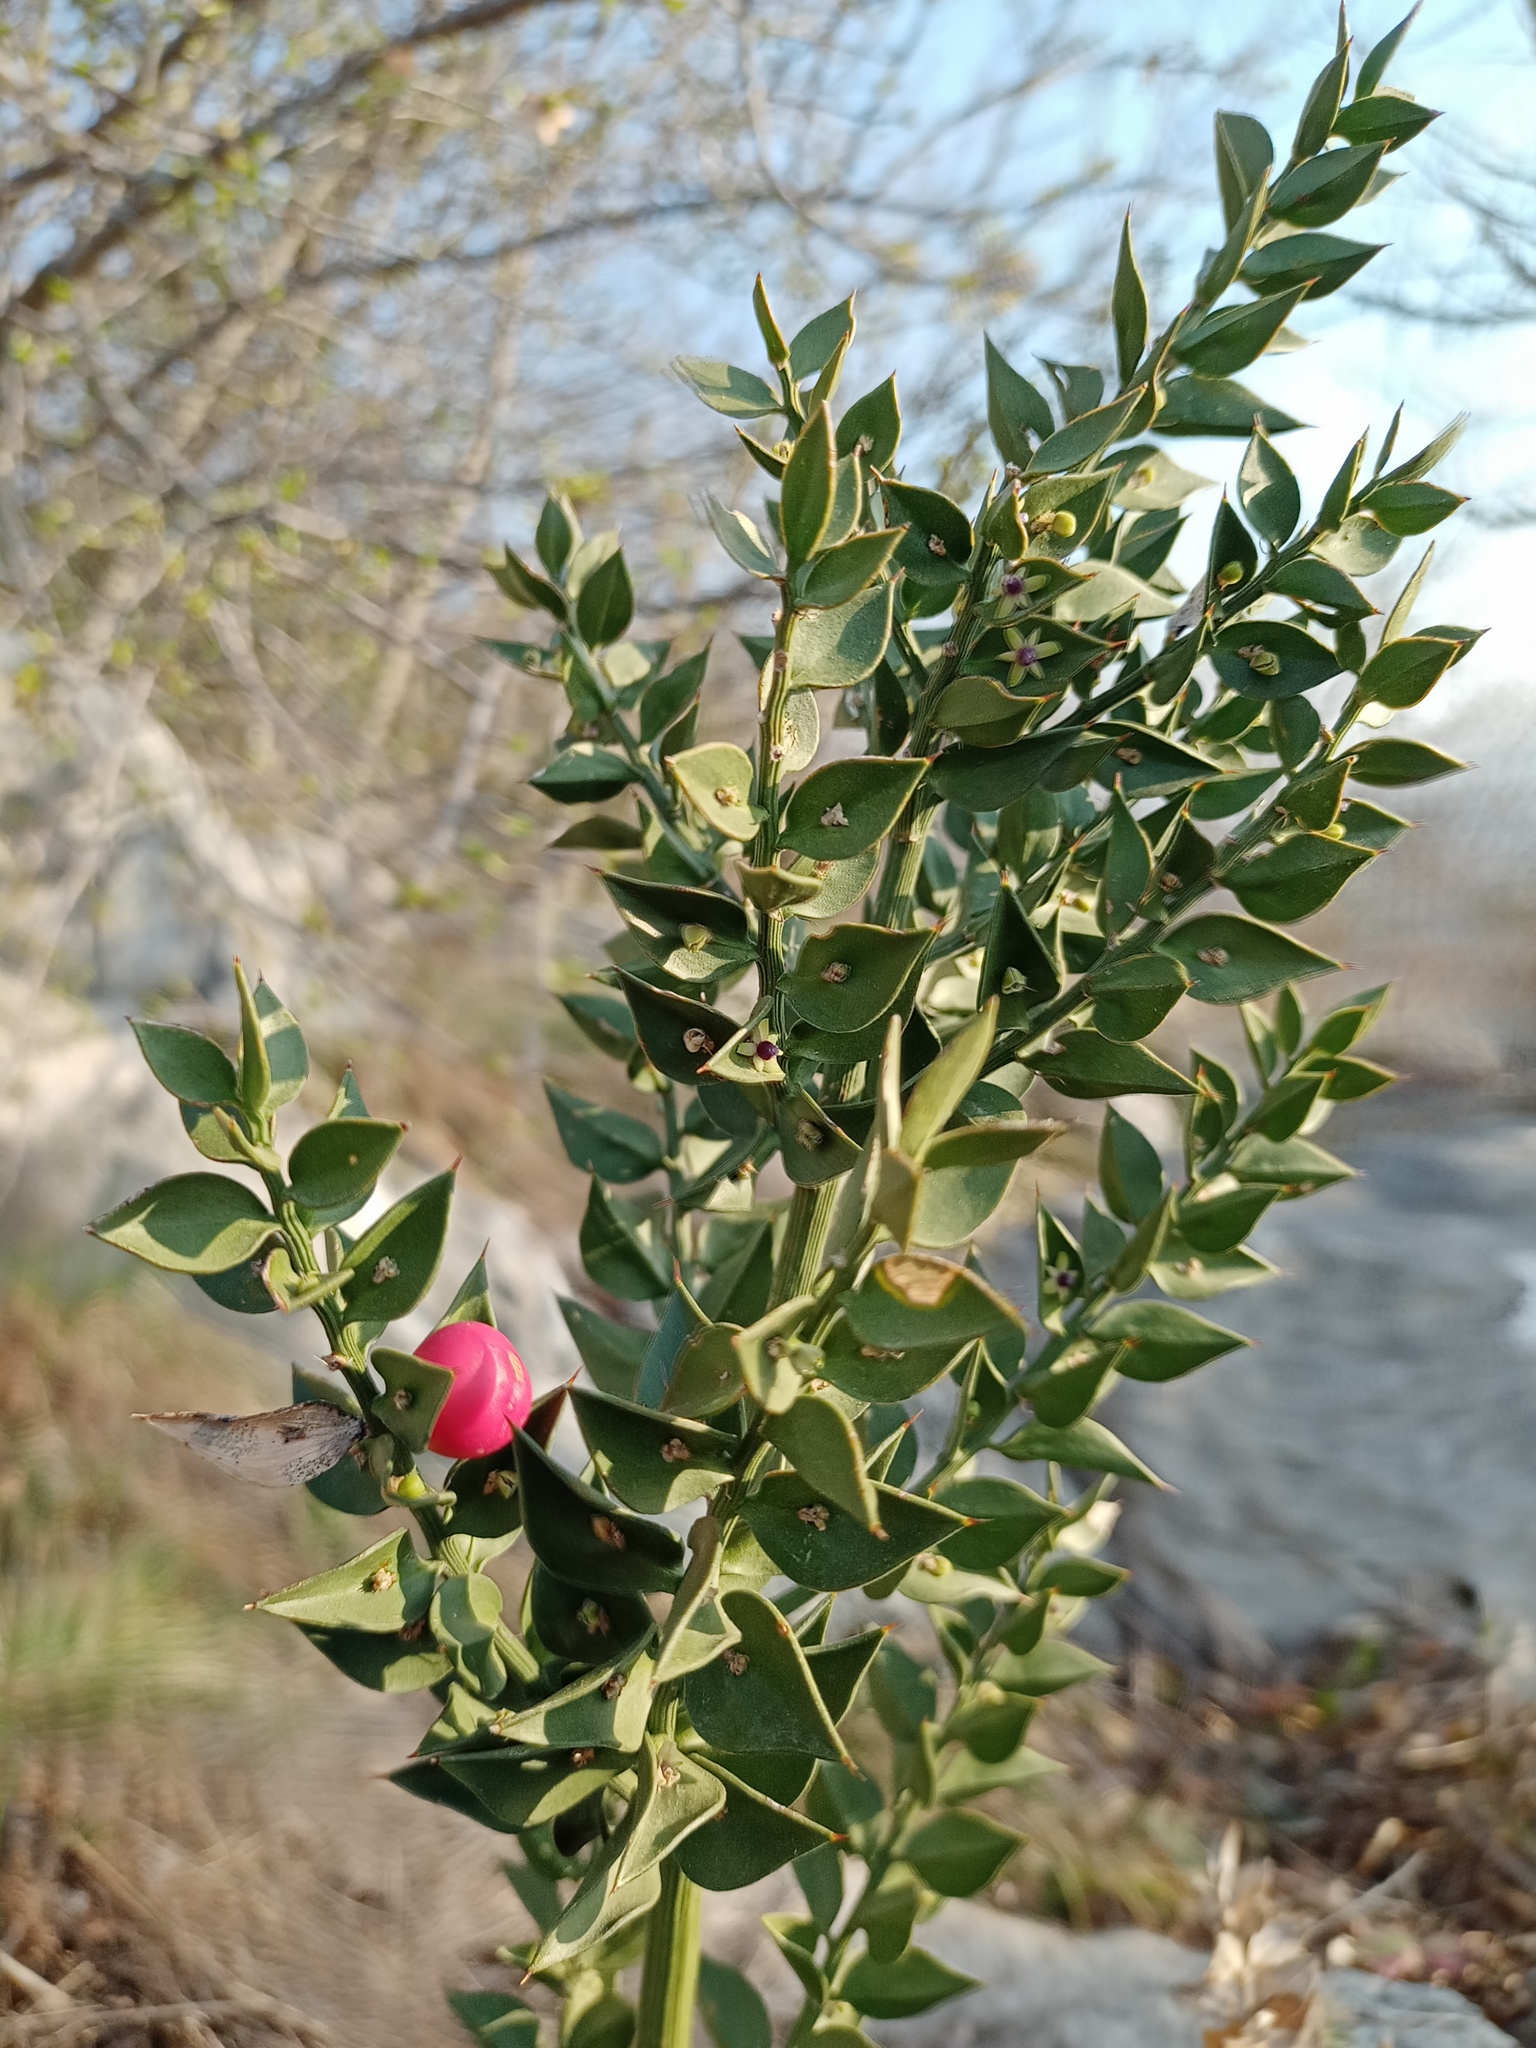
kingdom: Plantae
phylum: Tracheophyta
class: Liliopsida
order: Asparagales
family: Asparagaceae
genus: Ruscus
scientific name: Ruscus aculeatus
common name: Butcher's-broom
